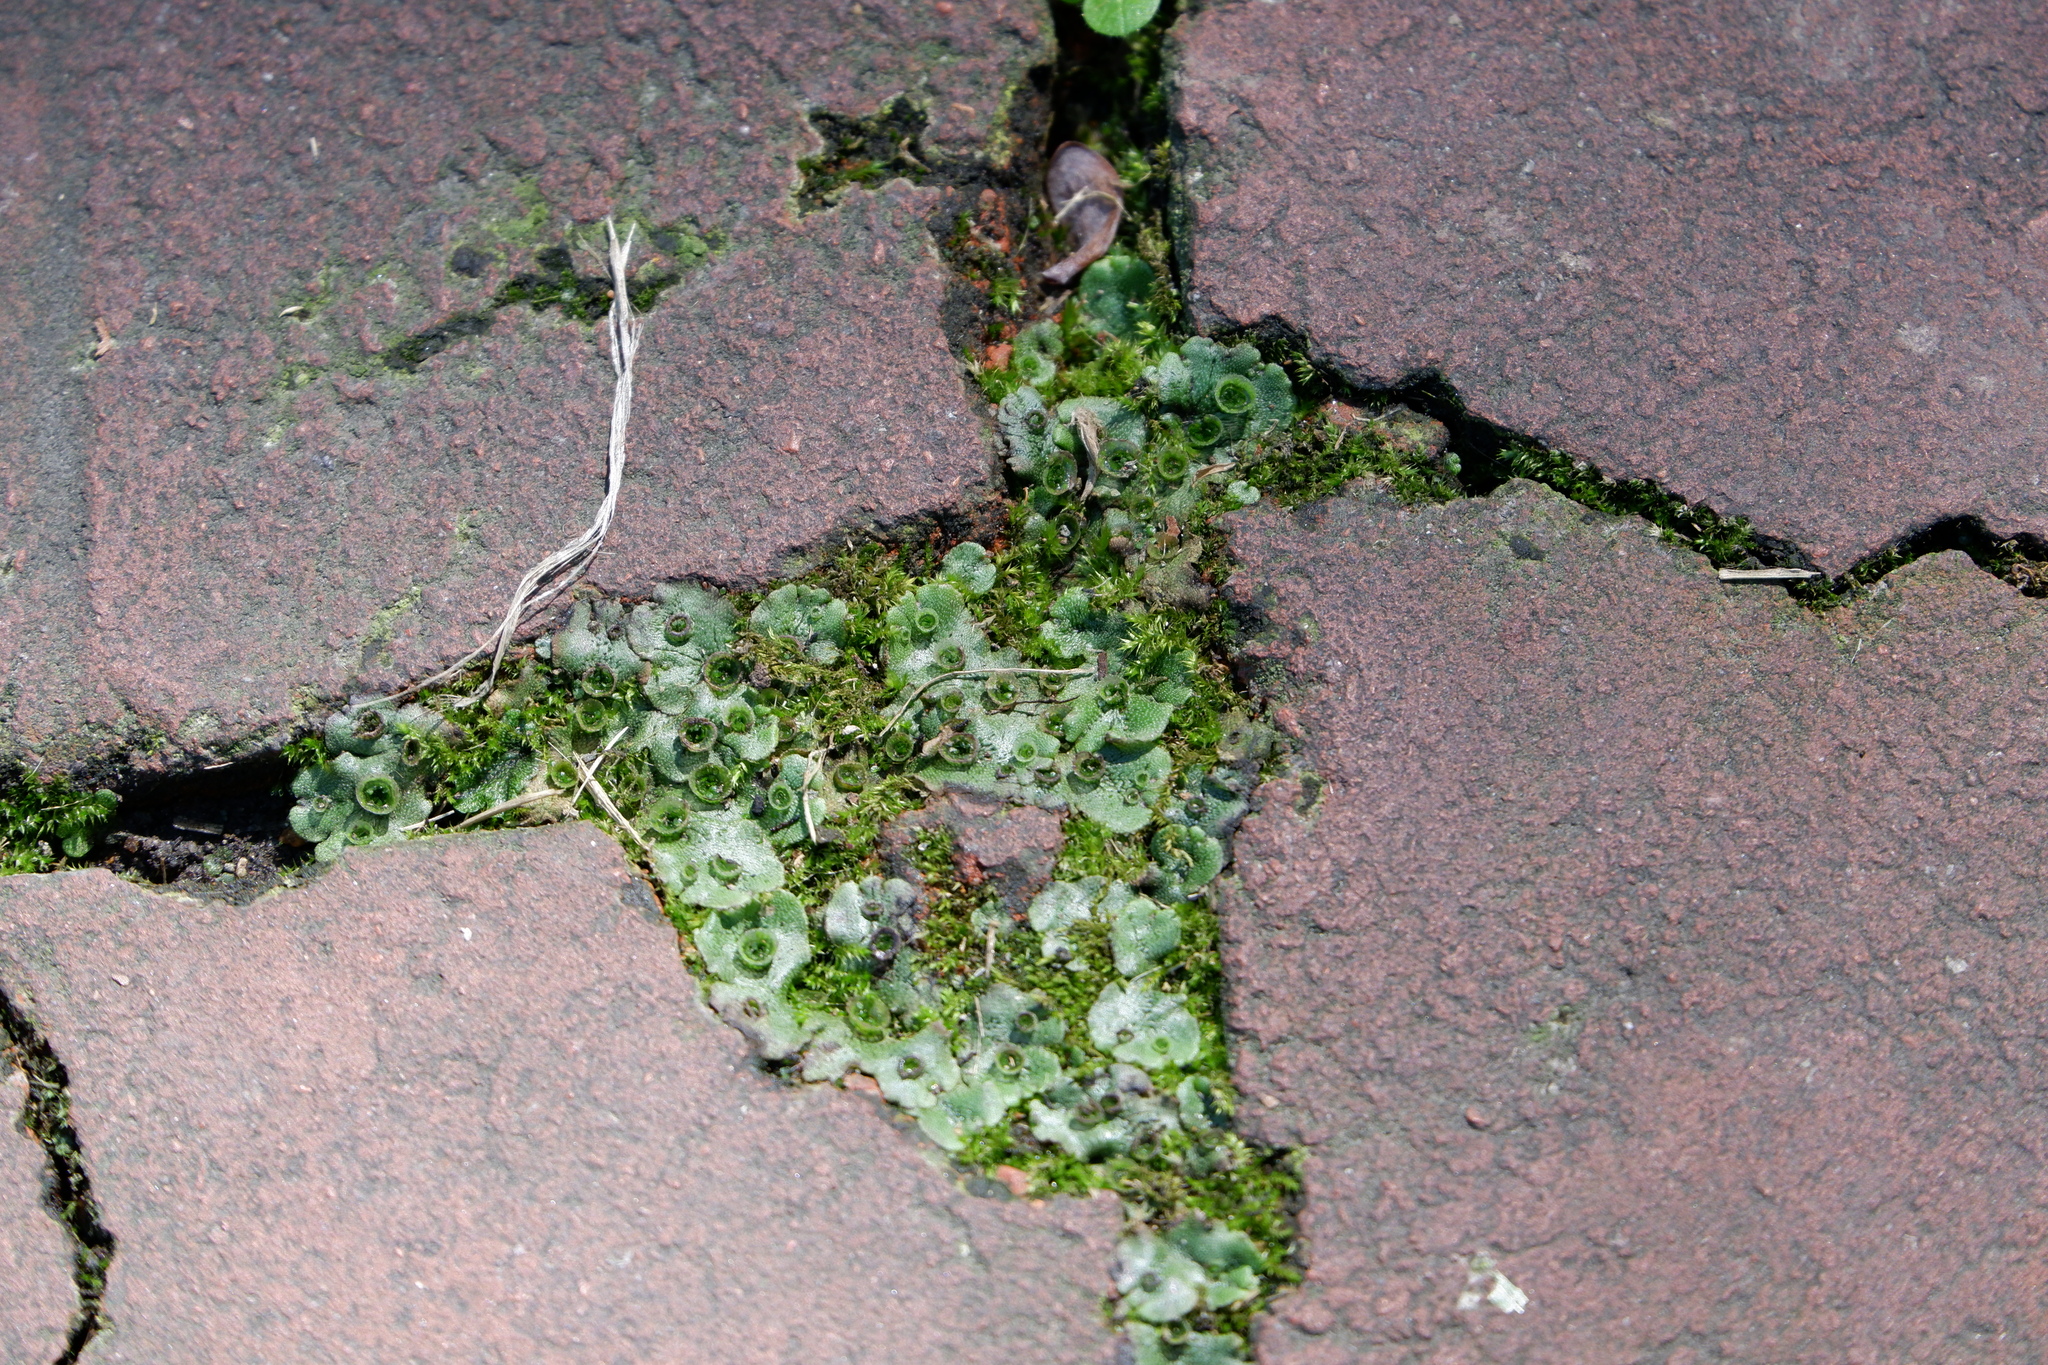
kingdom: Plantae
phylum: Marchantiophyta
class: Marchantiopsida
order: Marchantiales
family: Marchantiaceae
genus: Marchantia
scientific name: Marchantia polymorpha
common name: Common liverwort
